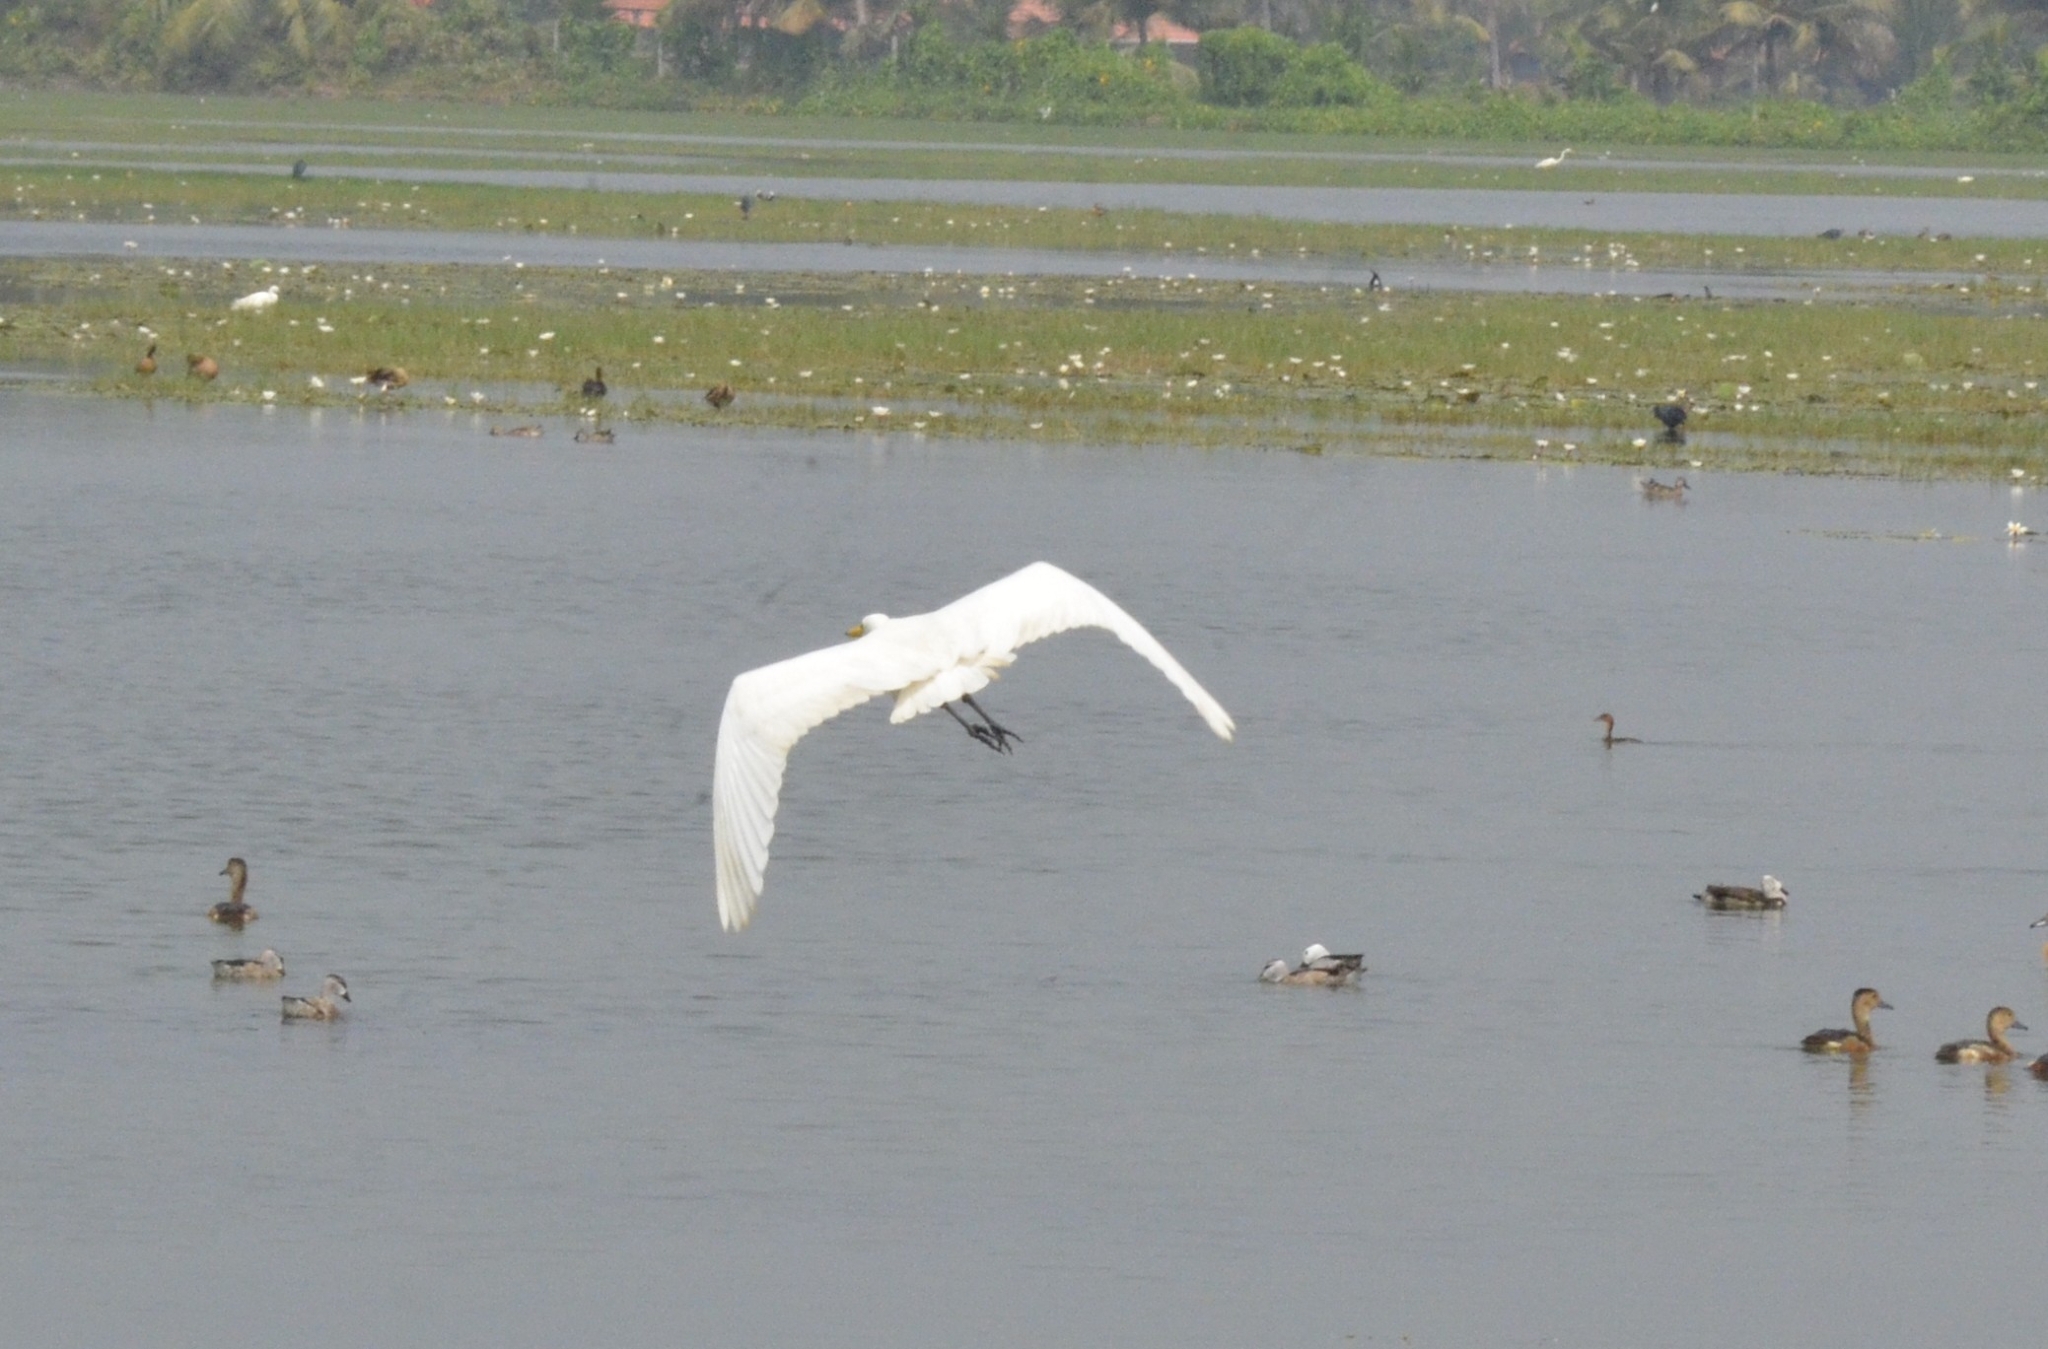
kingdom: Animalia
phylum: Chordata
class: Aves
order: Pelecaniformes
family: Ardeidae
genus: Ardea
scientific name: Ardea alba
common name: Great egret
